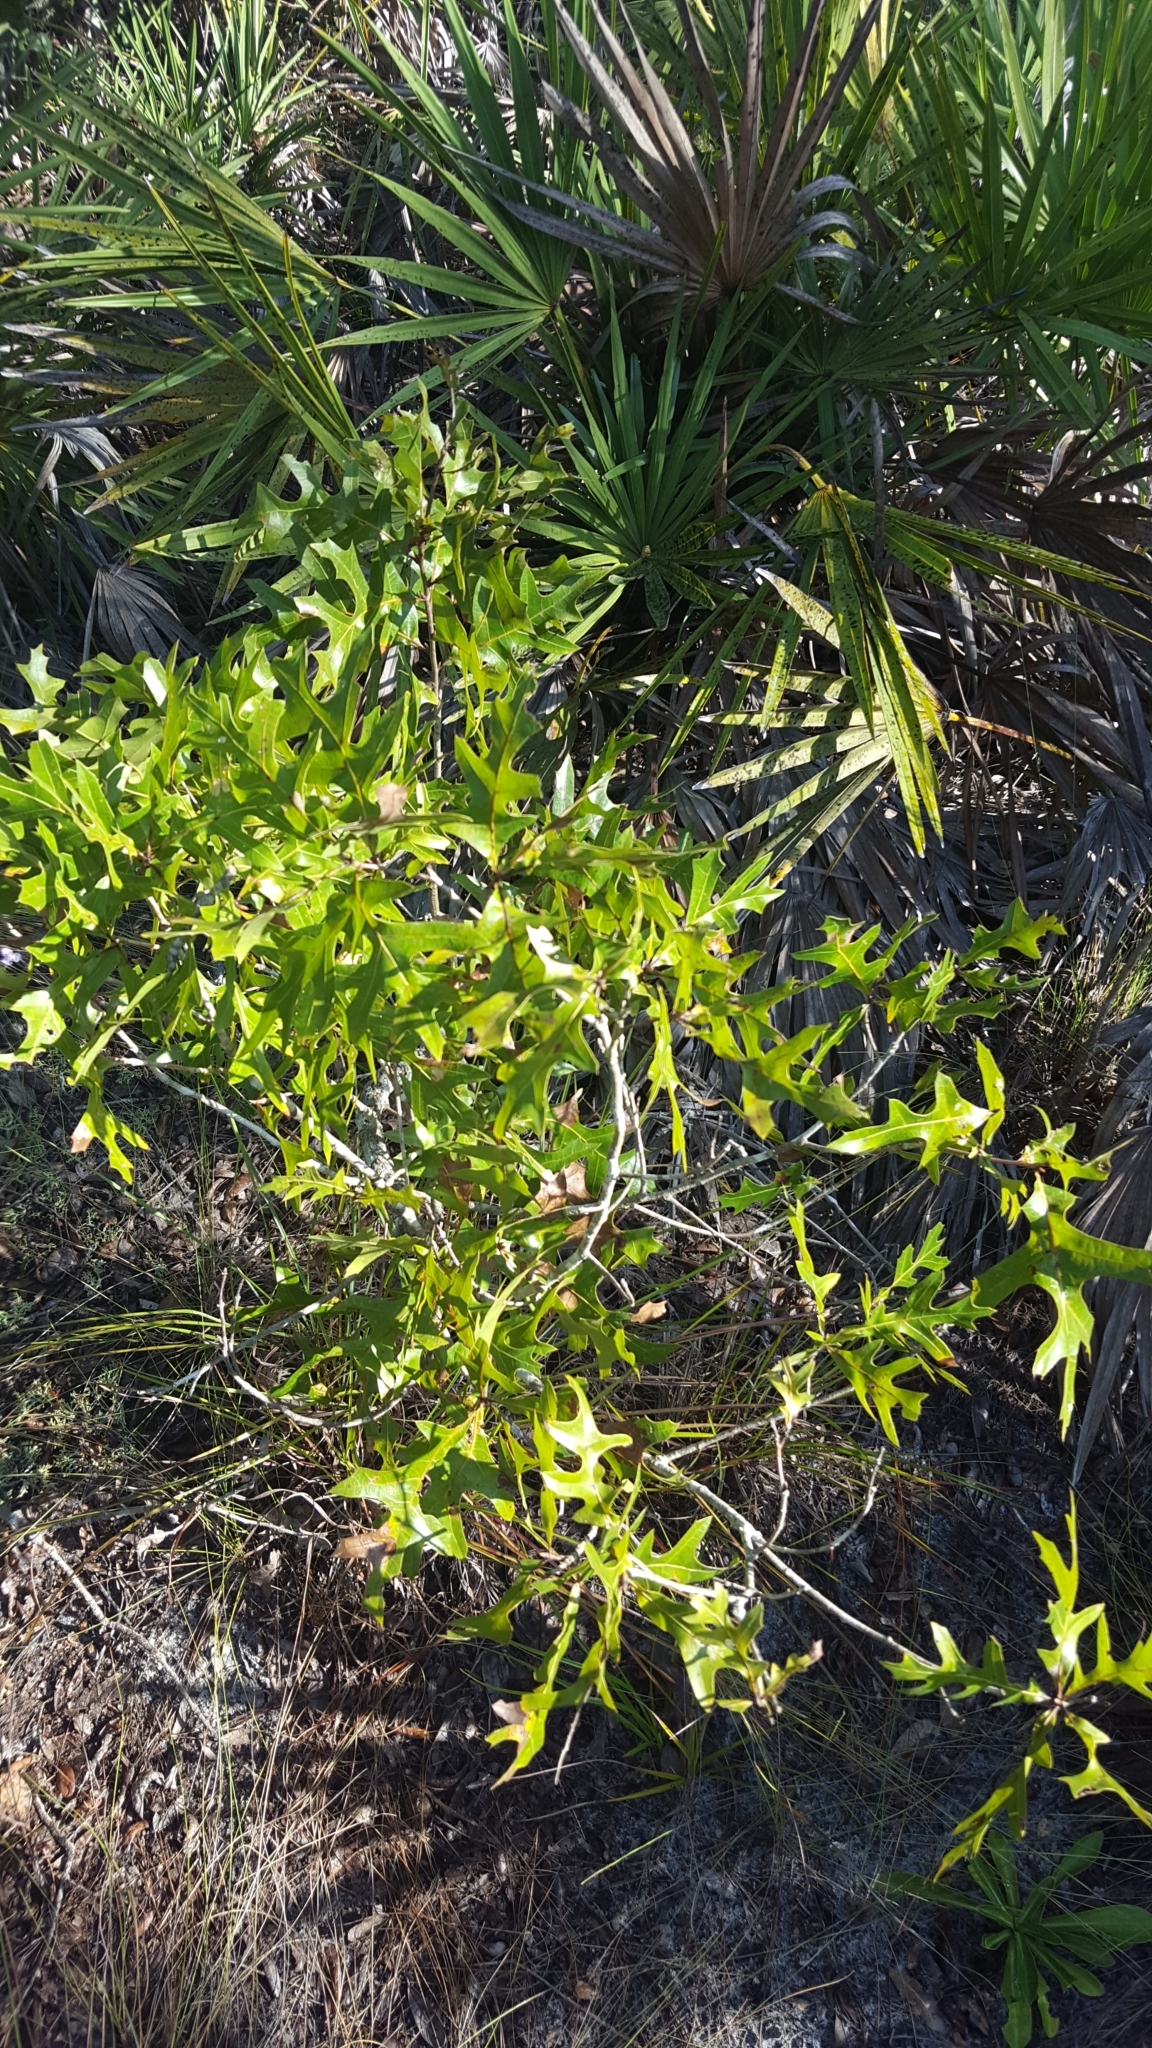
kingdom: Plantae
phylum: Tracheophyta
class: Magnoliopsida
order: Fagales
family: Fagaceae
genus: Quercus
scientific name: Quercus laevis
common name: Turkey oak
